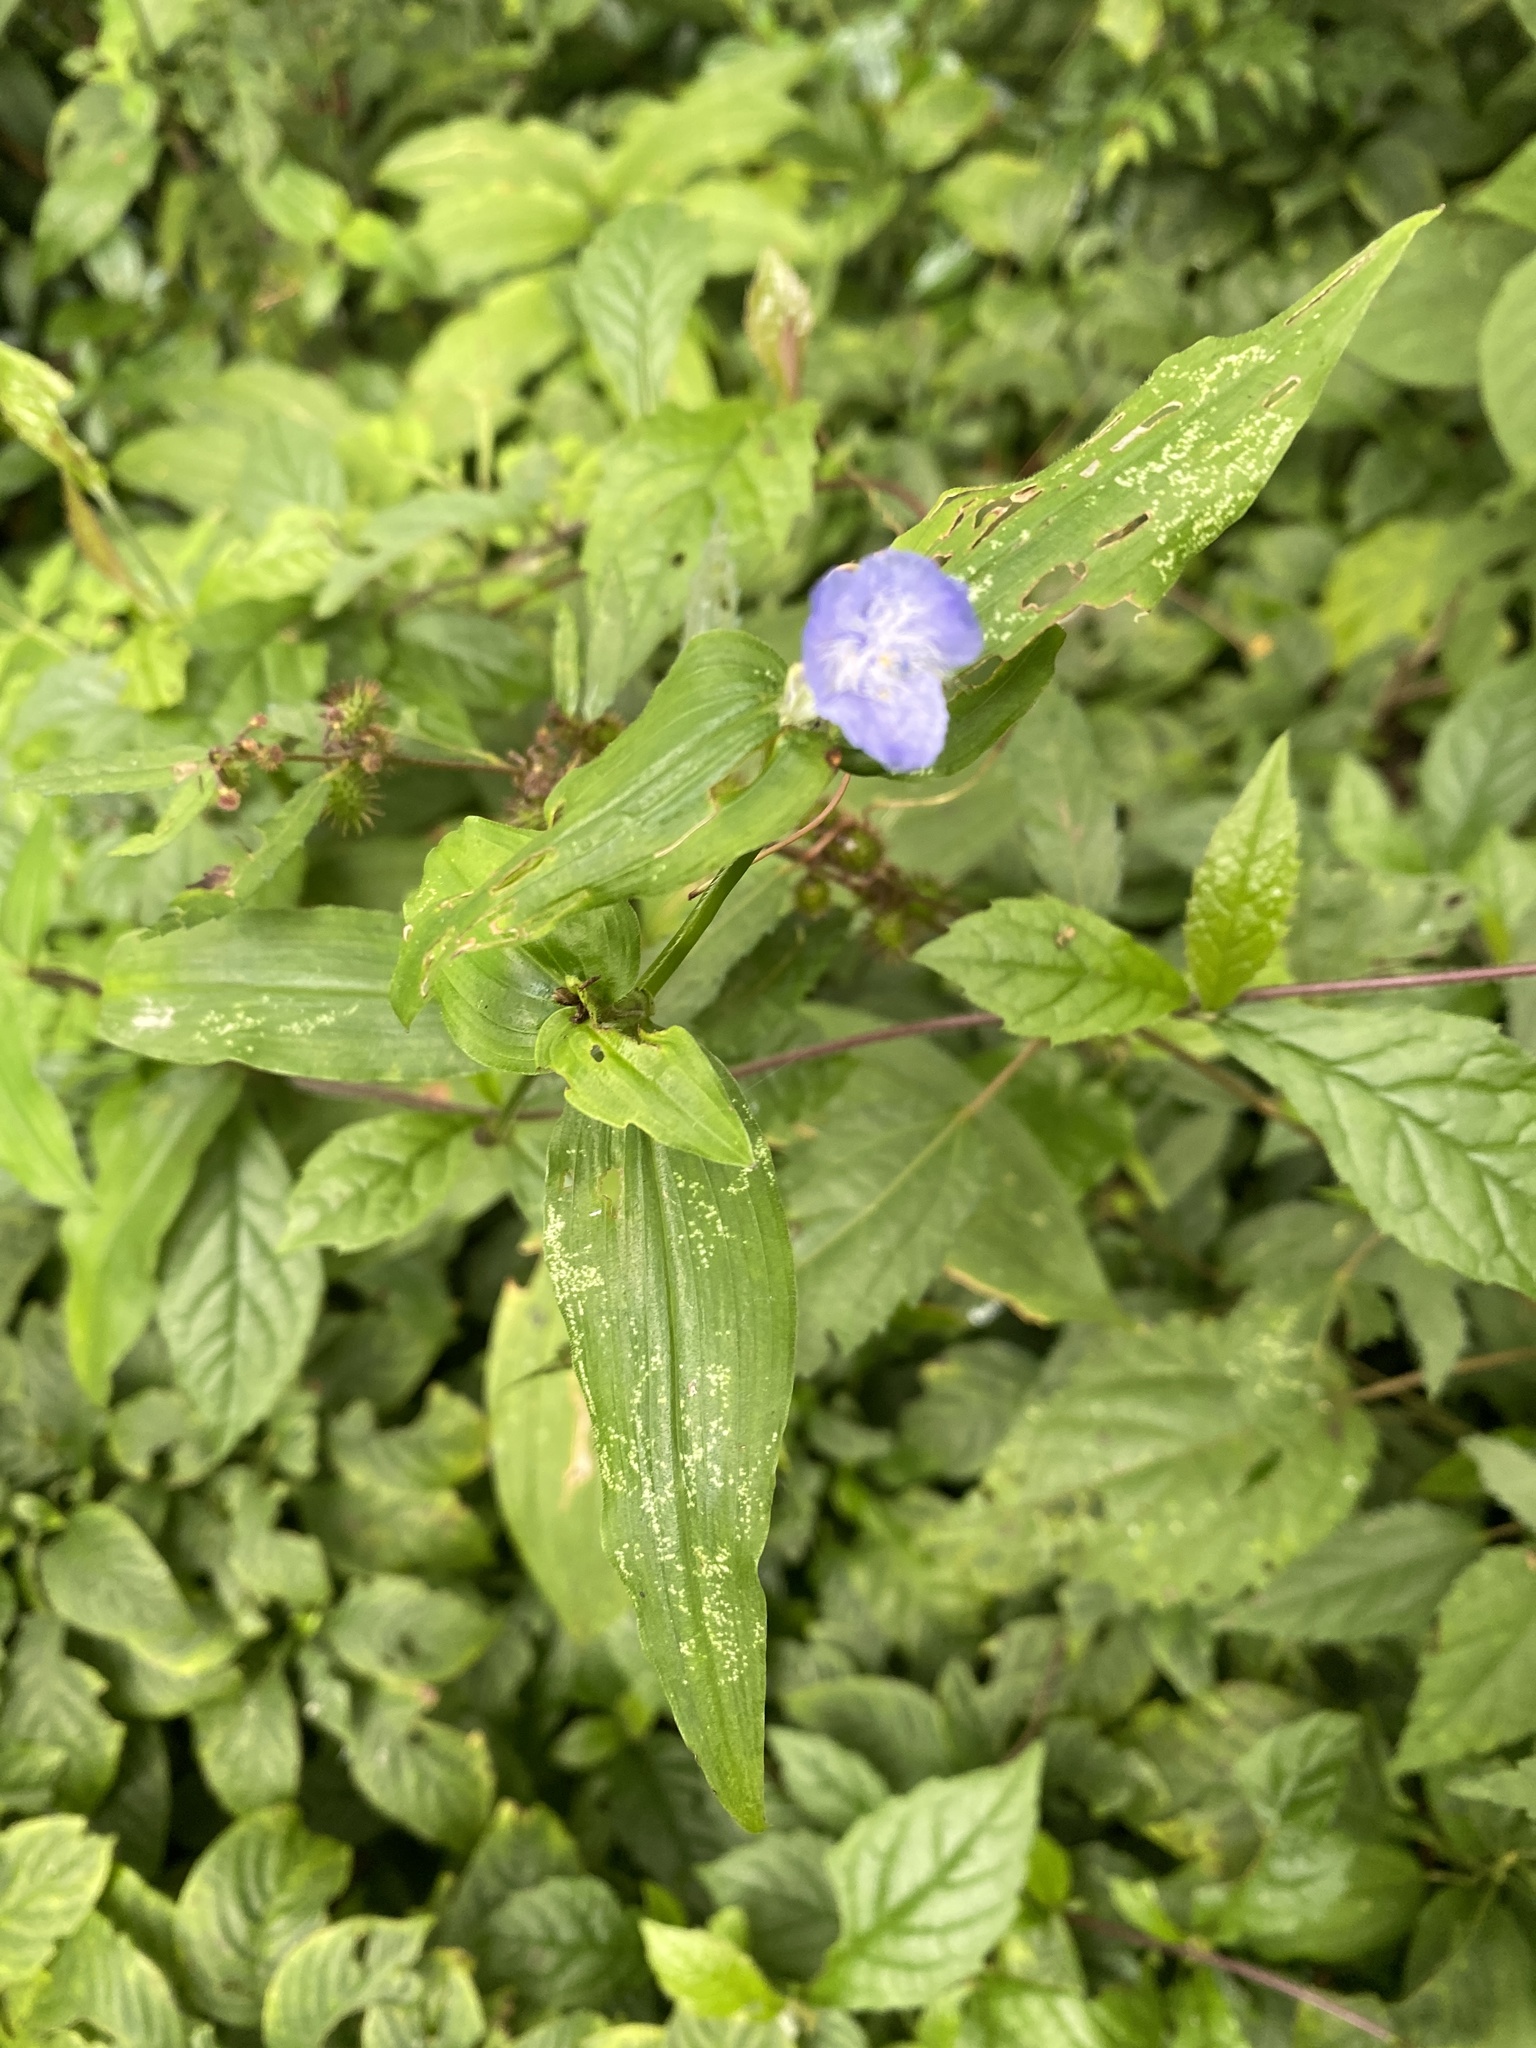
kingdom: Plantae
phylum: Tracheophyta
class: Liliopsida
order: Commelinales
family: Commelinaceae
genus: Elasis
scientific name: Elasis guatemalensis
